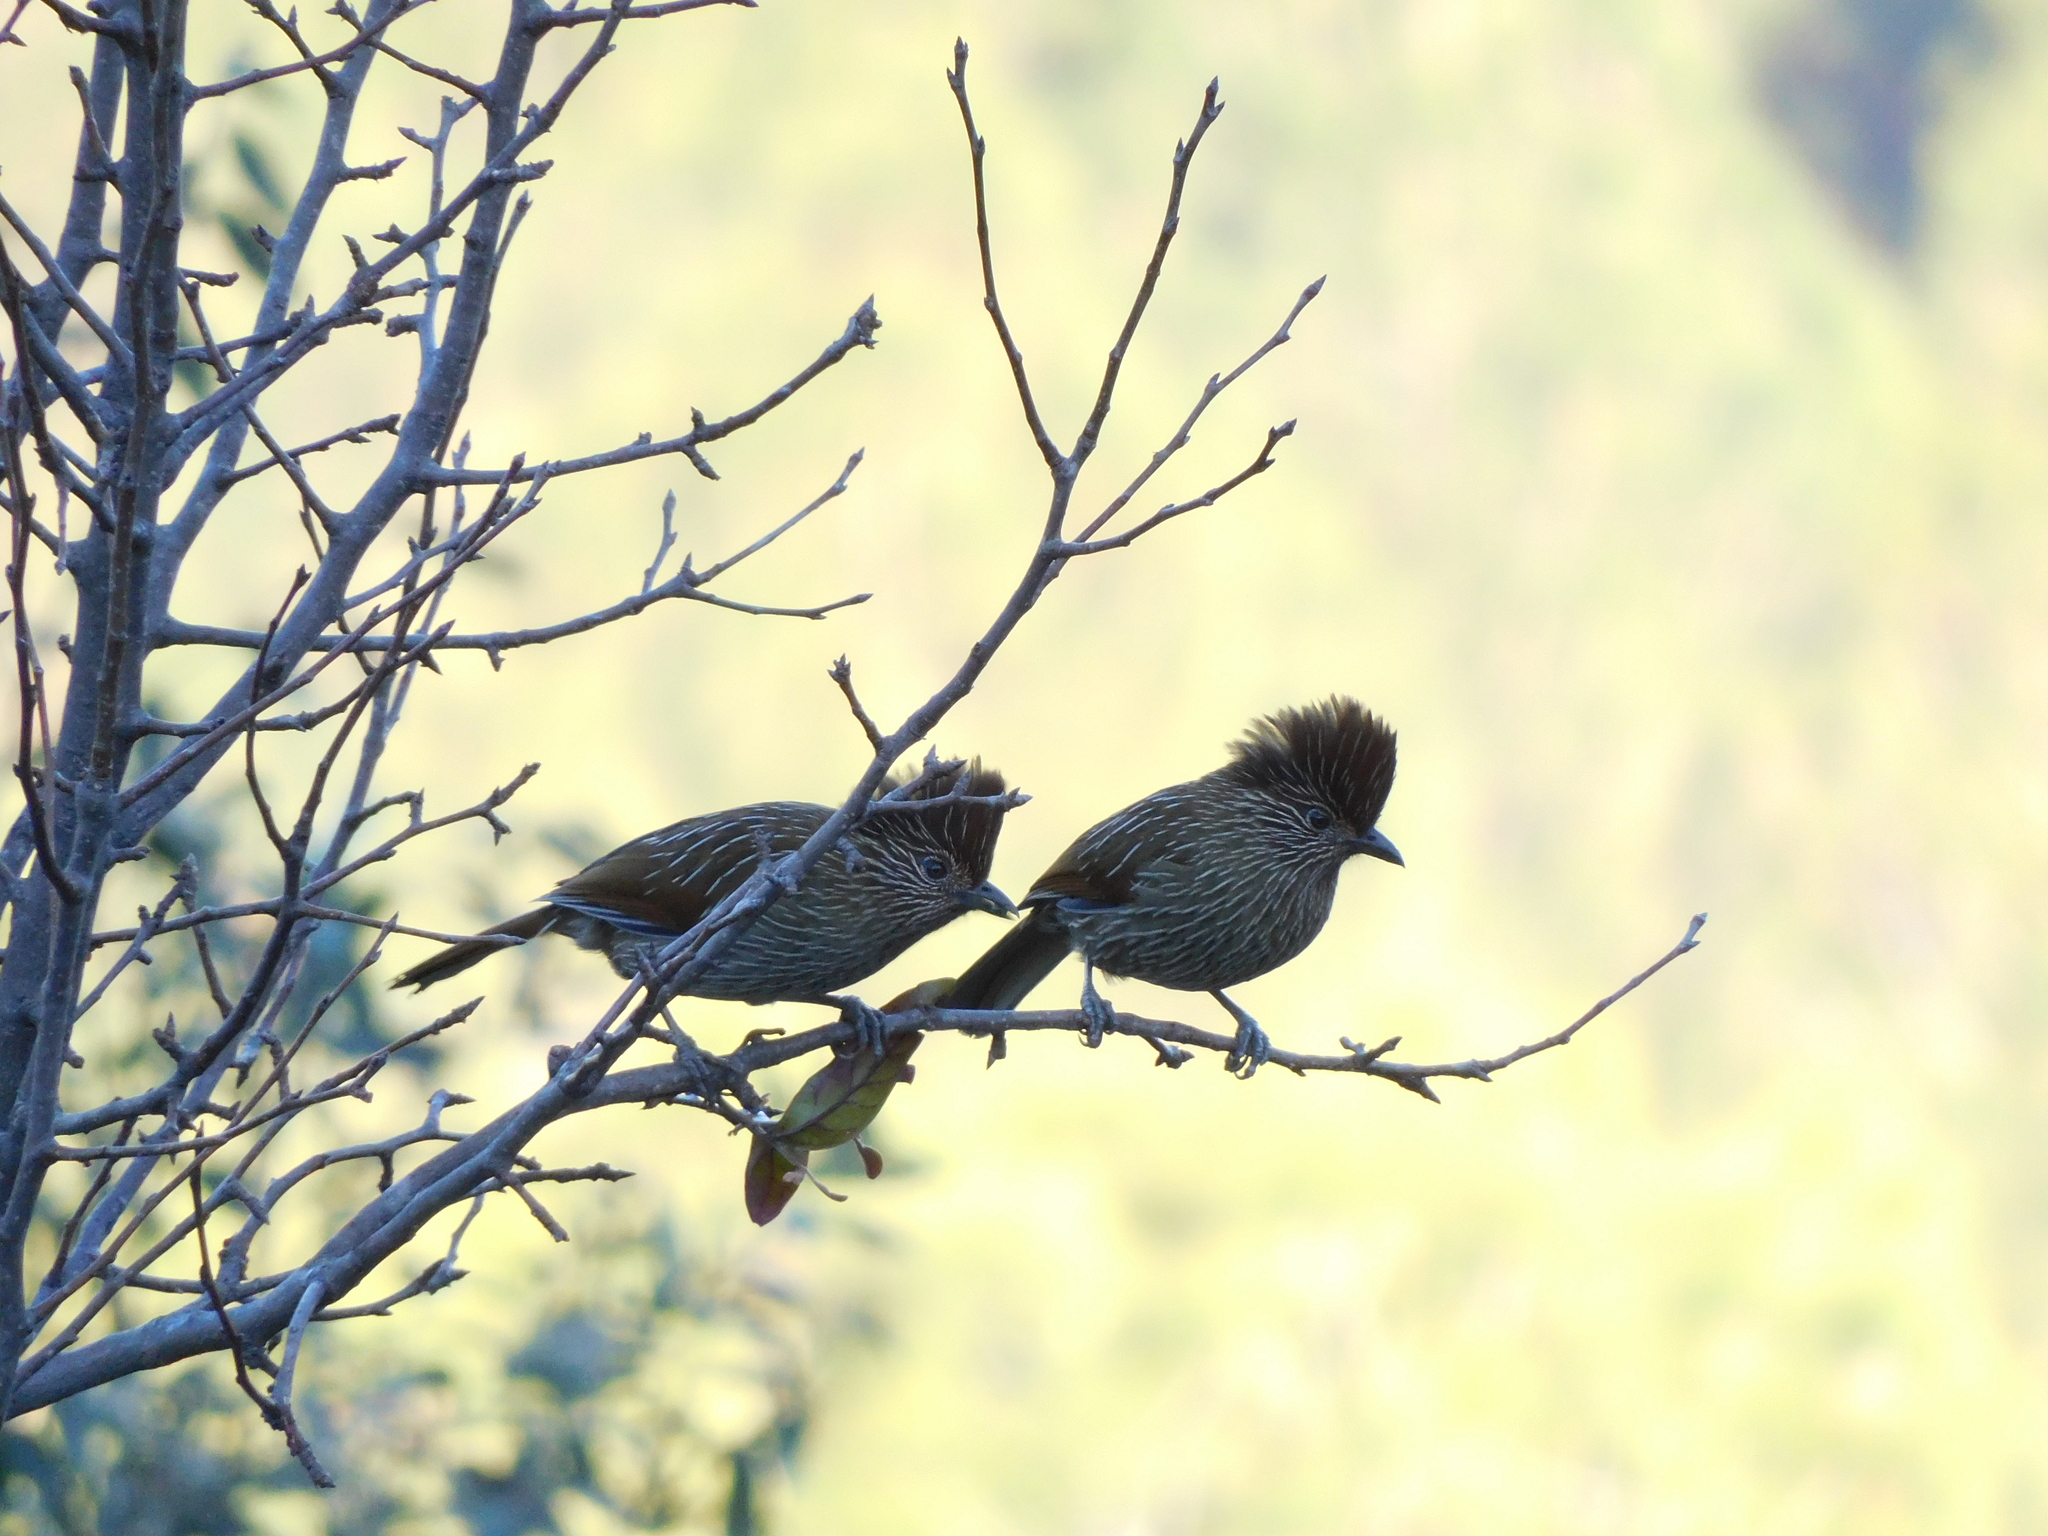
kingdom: Animalia
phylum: Chordata
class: Aves
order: Passeriformes
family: Leiothrichidae
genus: Garrulax
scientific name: Garrulax striatus
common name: Striated laughingthrush
